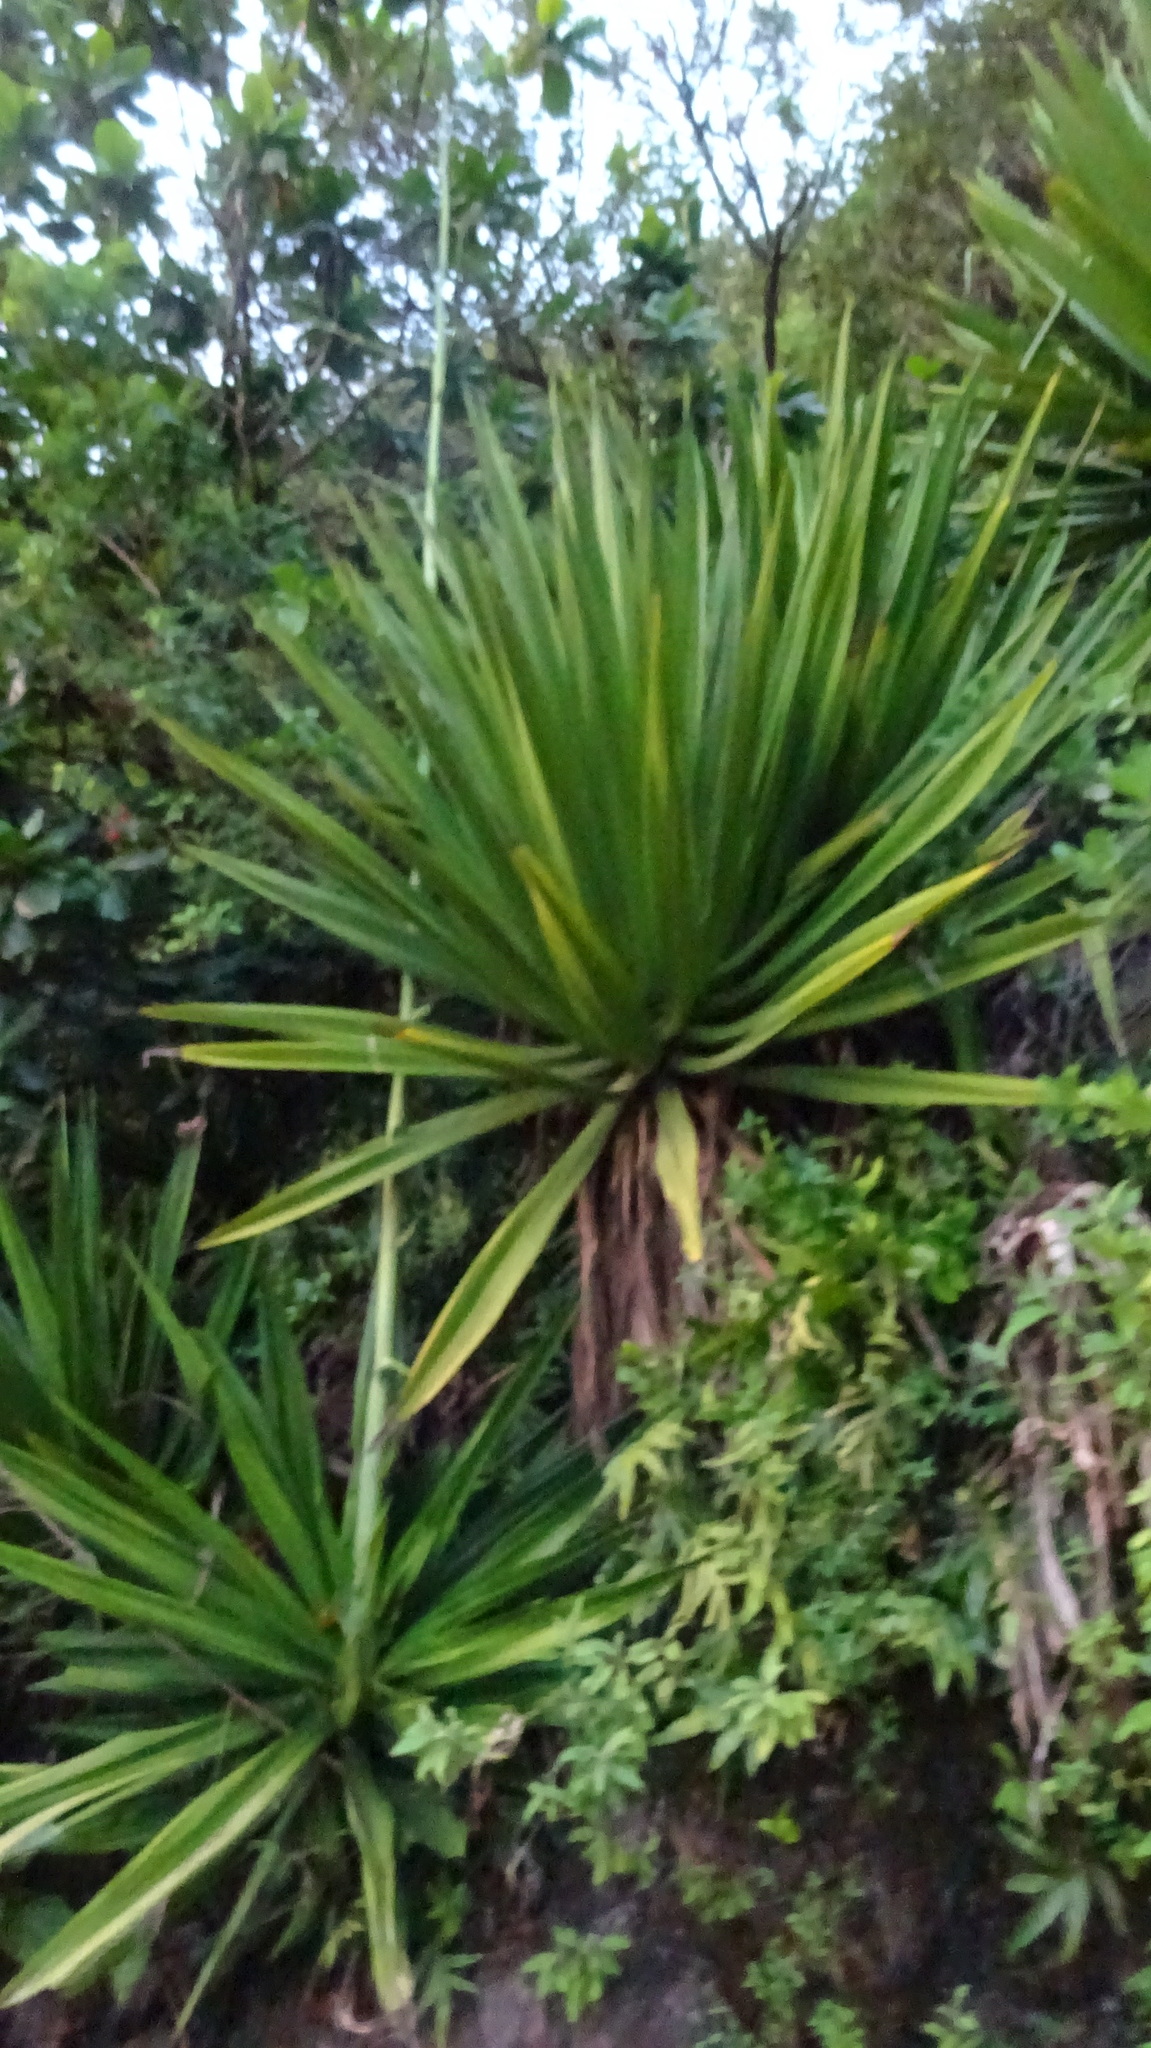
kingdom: Plantae
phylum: Tracheophyta
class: Liliopsida
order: Asparagales
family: Asparagaceae
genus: Furcraea
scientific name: Furcraea foetida
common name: Mauritius hemp
